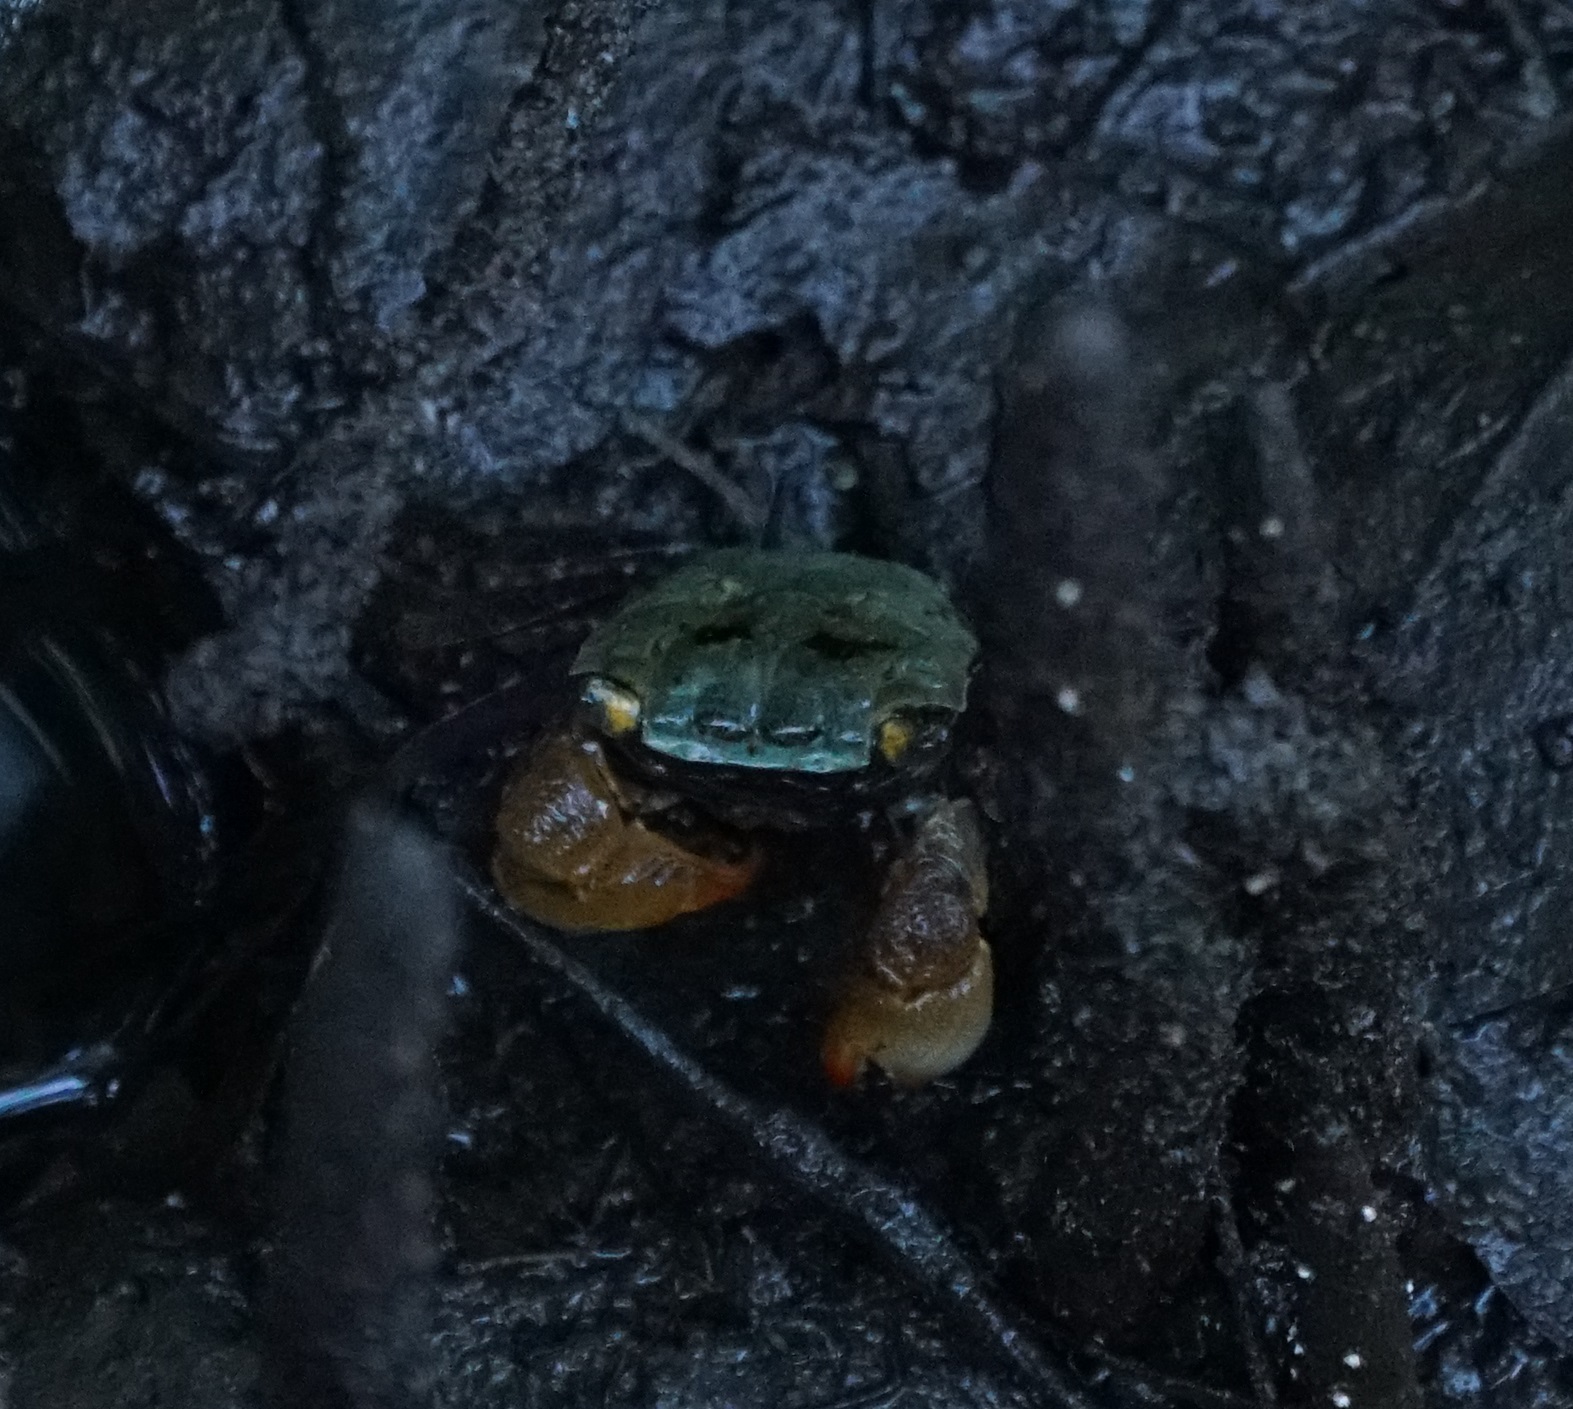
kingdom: Animalia
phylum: Arthropoda
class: Malacostraca
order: Decapoda
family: Sesarmidae
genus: Parasesarma
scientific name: Parasesarma erythodactylum
